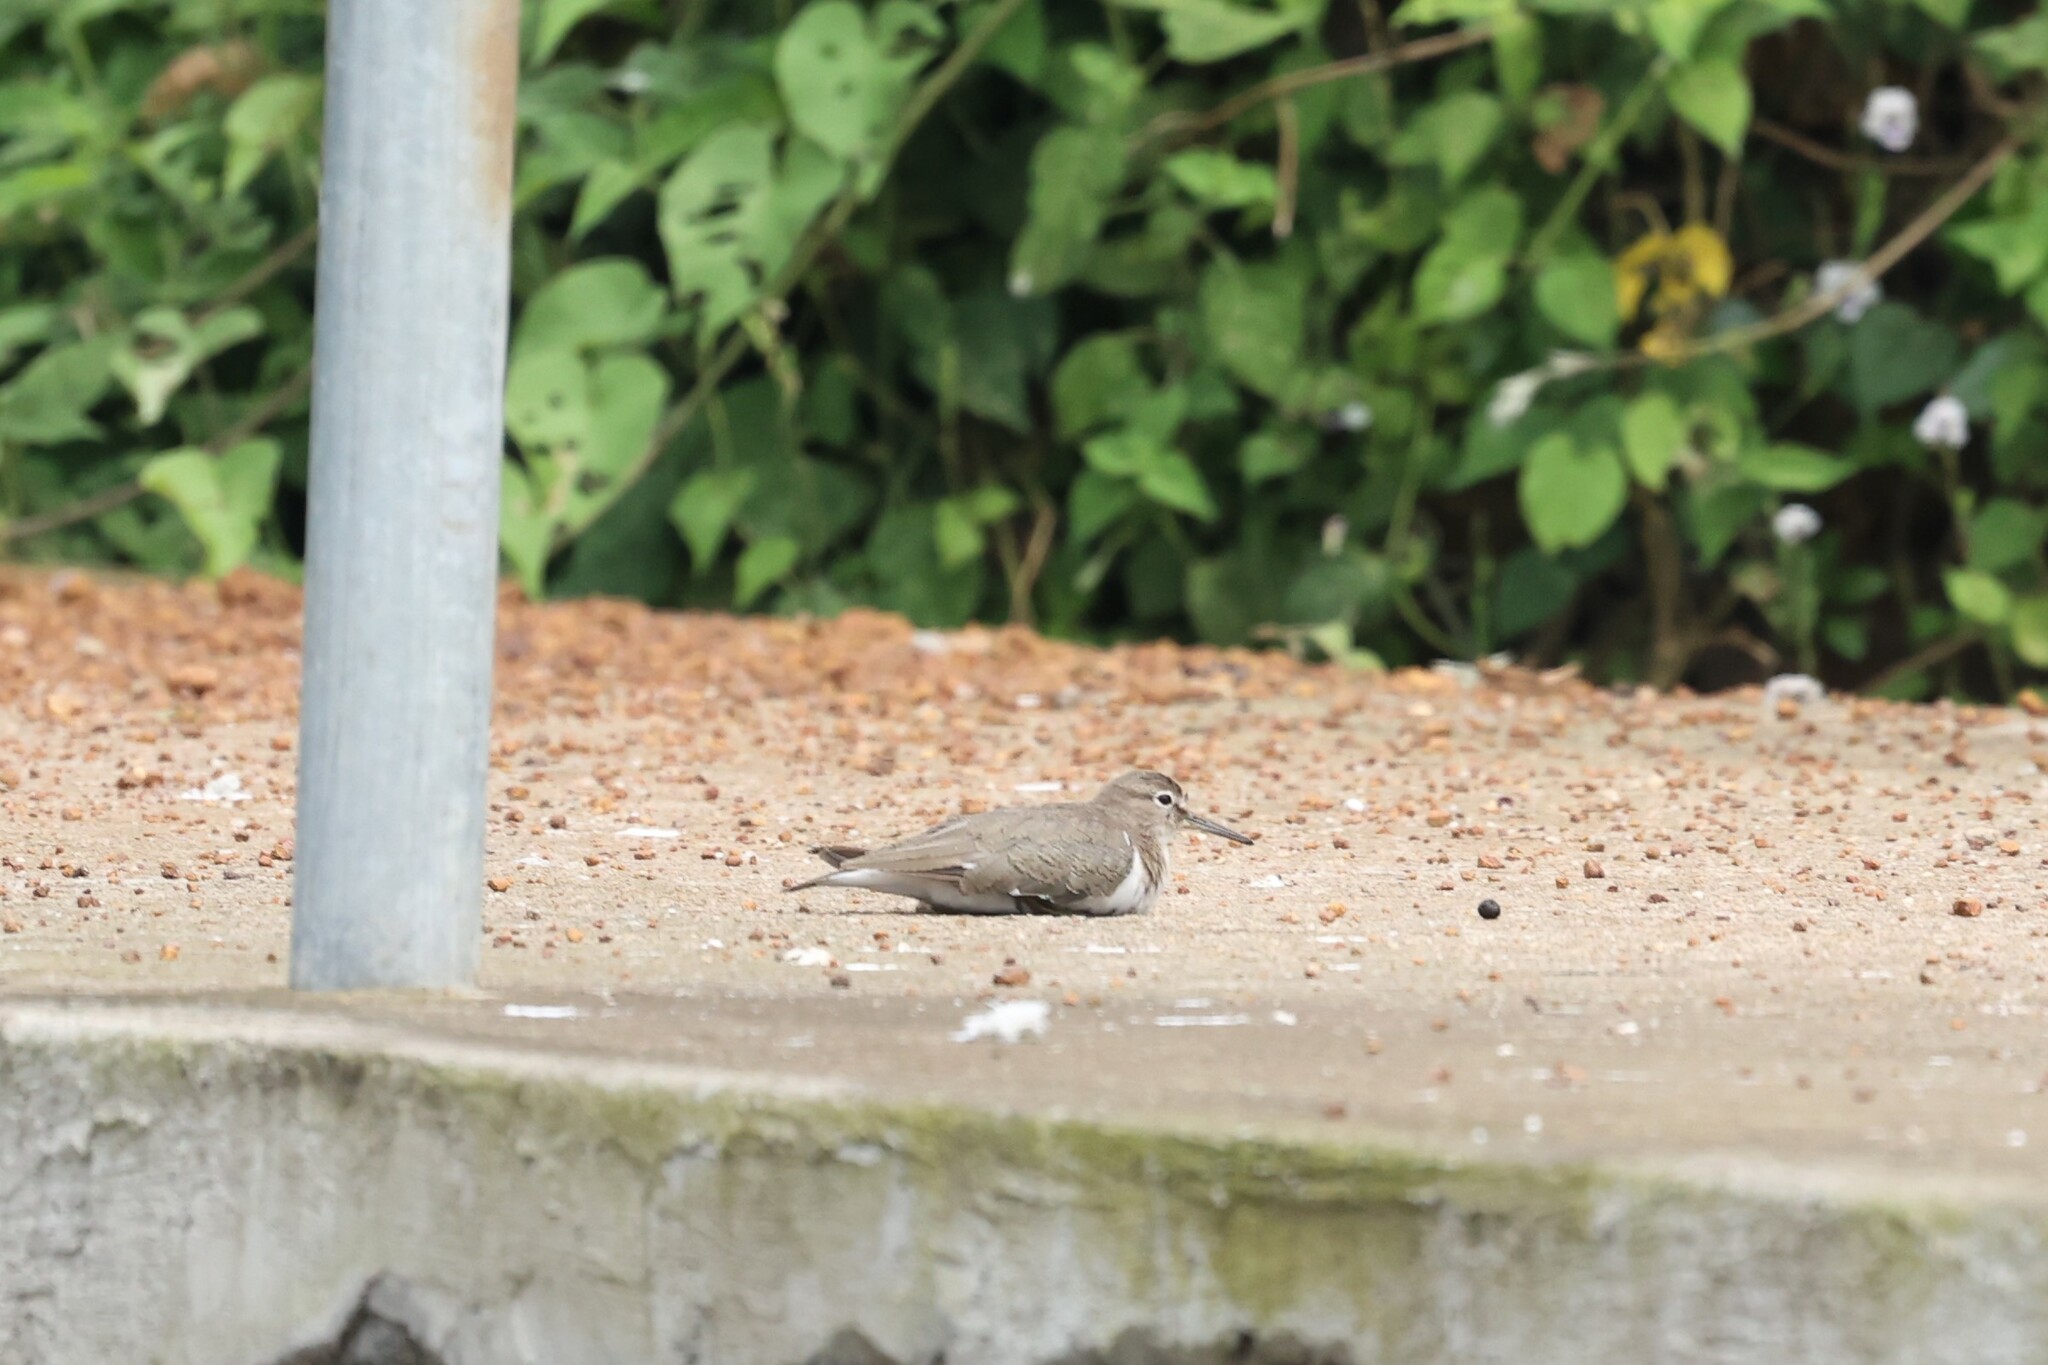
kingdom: Animalia
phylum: Chordata
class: Aves
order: Charadriiformes
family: Scolopacidae
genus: Actitis
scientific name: Actitis hypoleucos
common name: Common sandpiper
